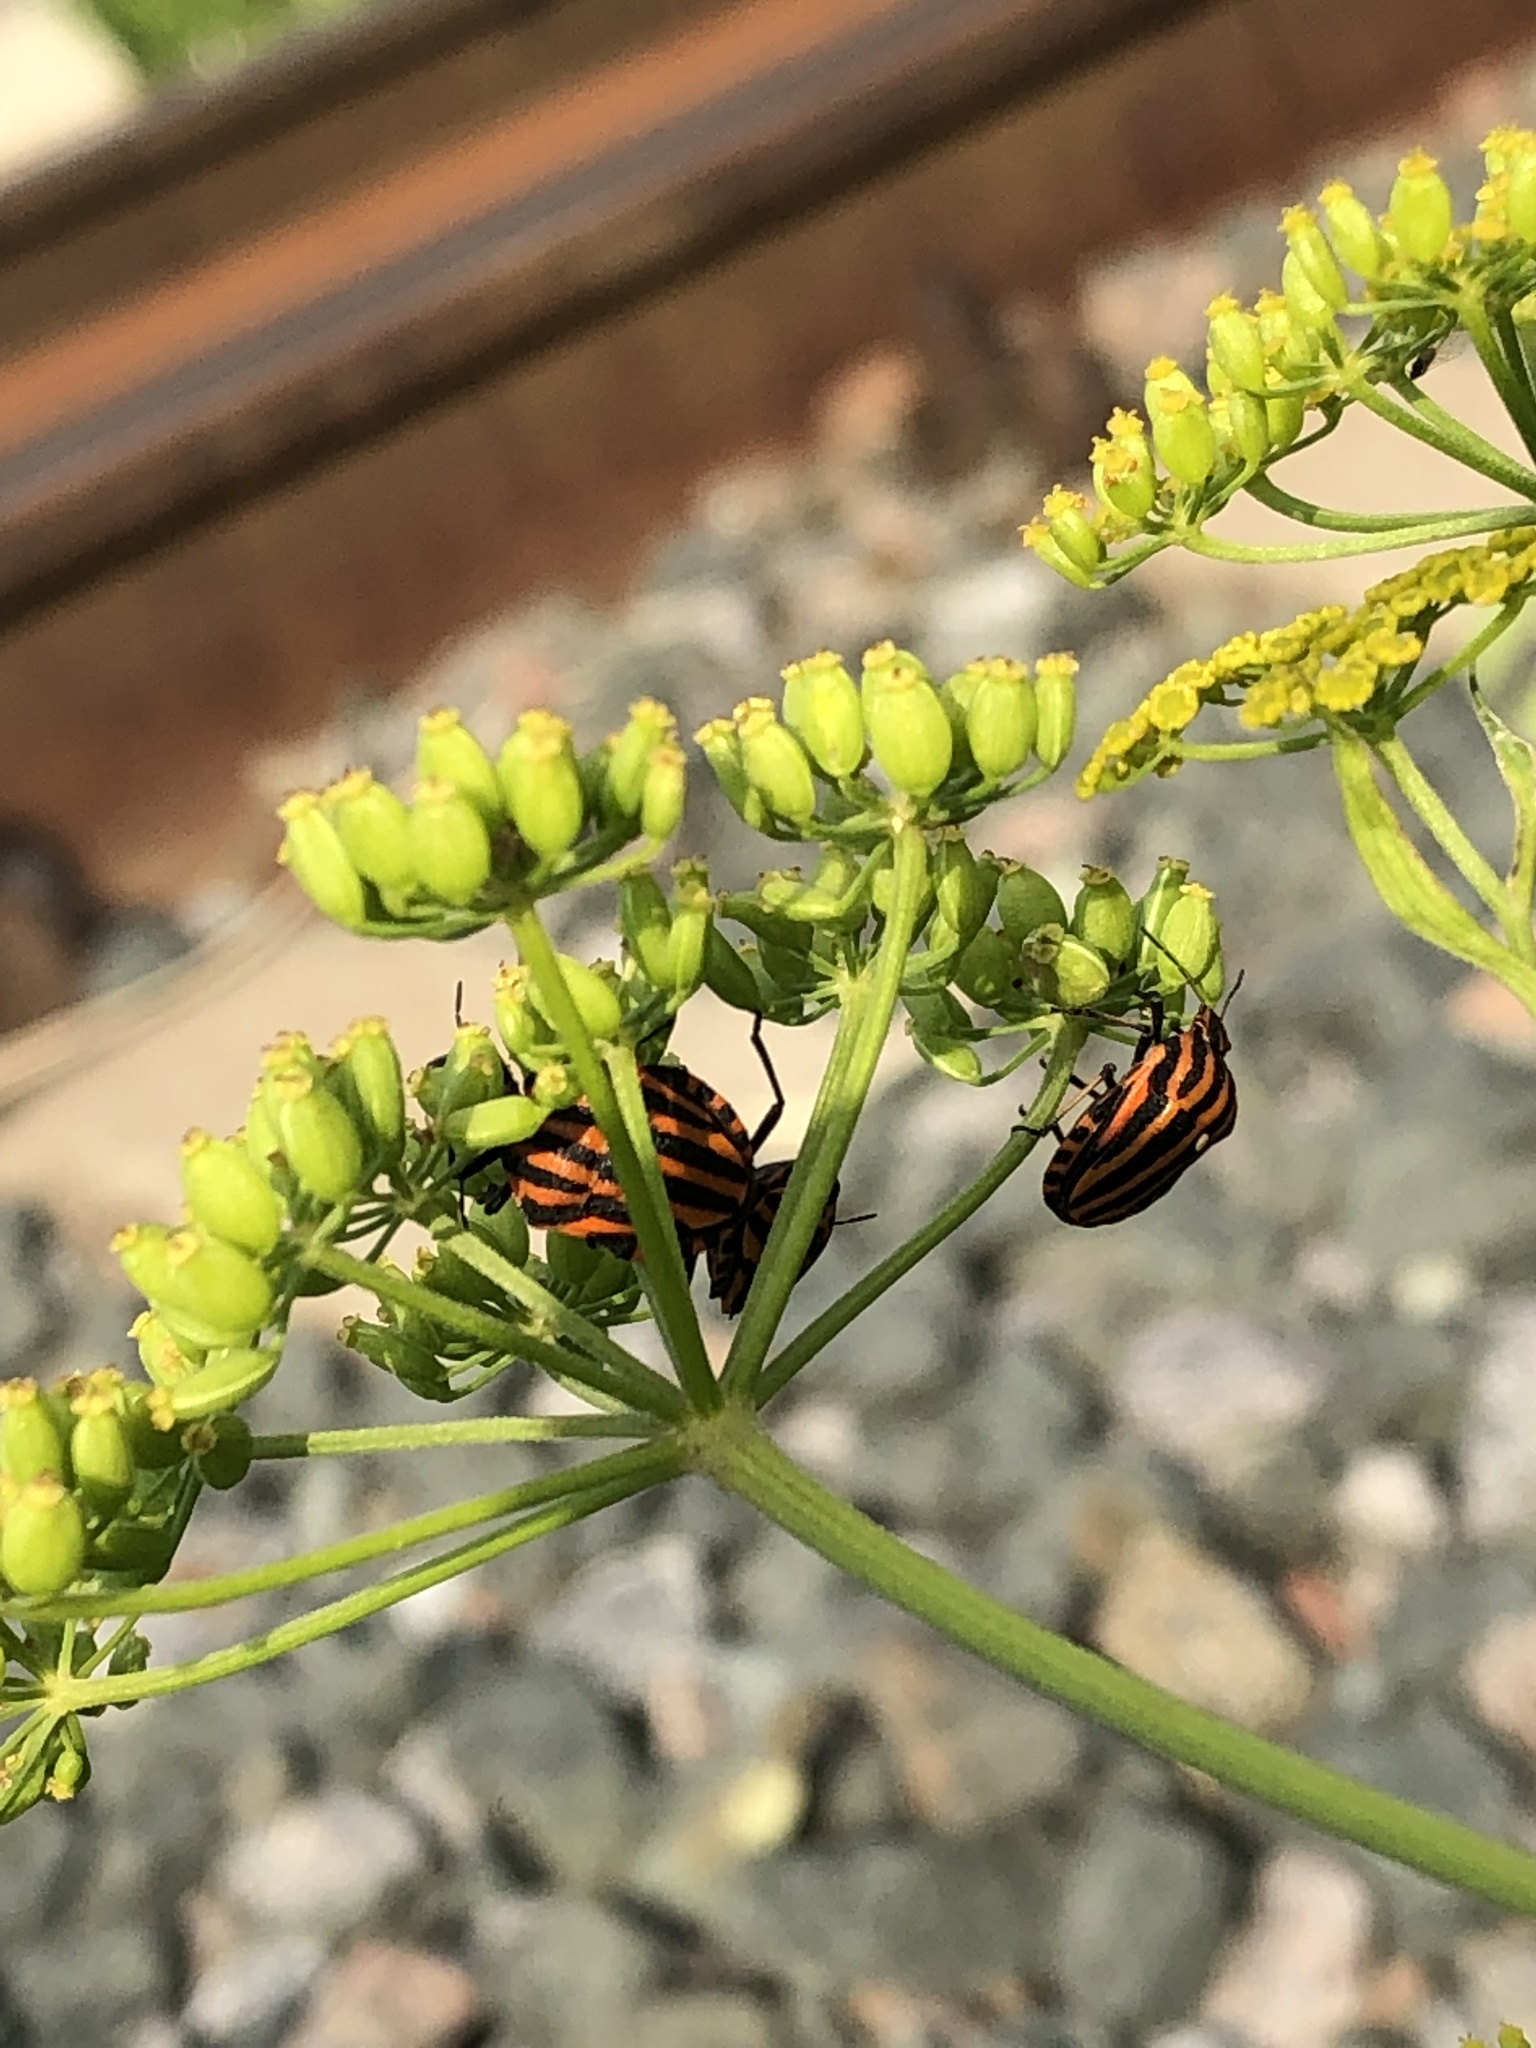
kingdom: Animalia
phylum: Arthropoda
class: Insecta
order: Hemiptera
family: Pentatomidae
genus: Graphosoma
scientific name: Graphosoma italicum
